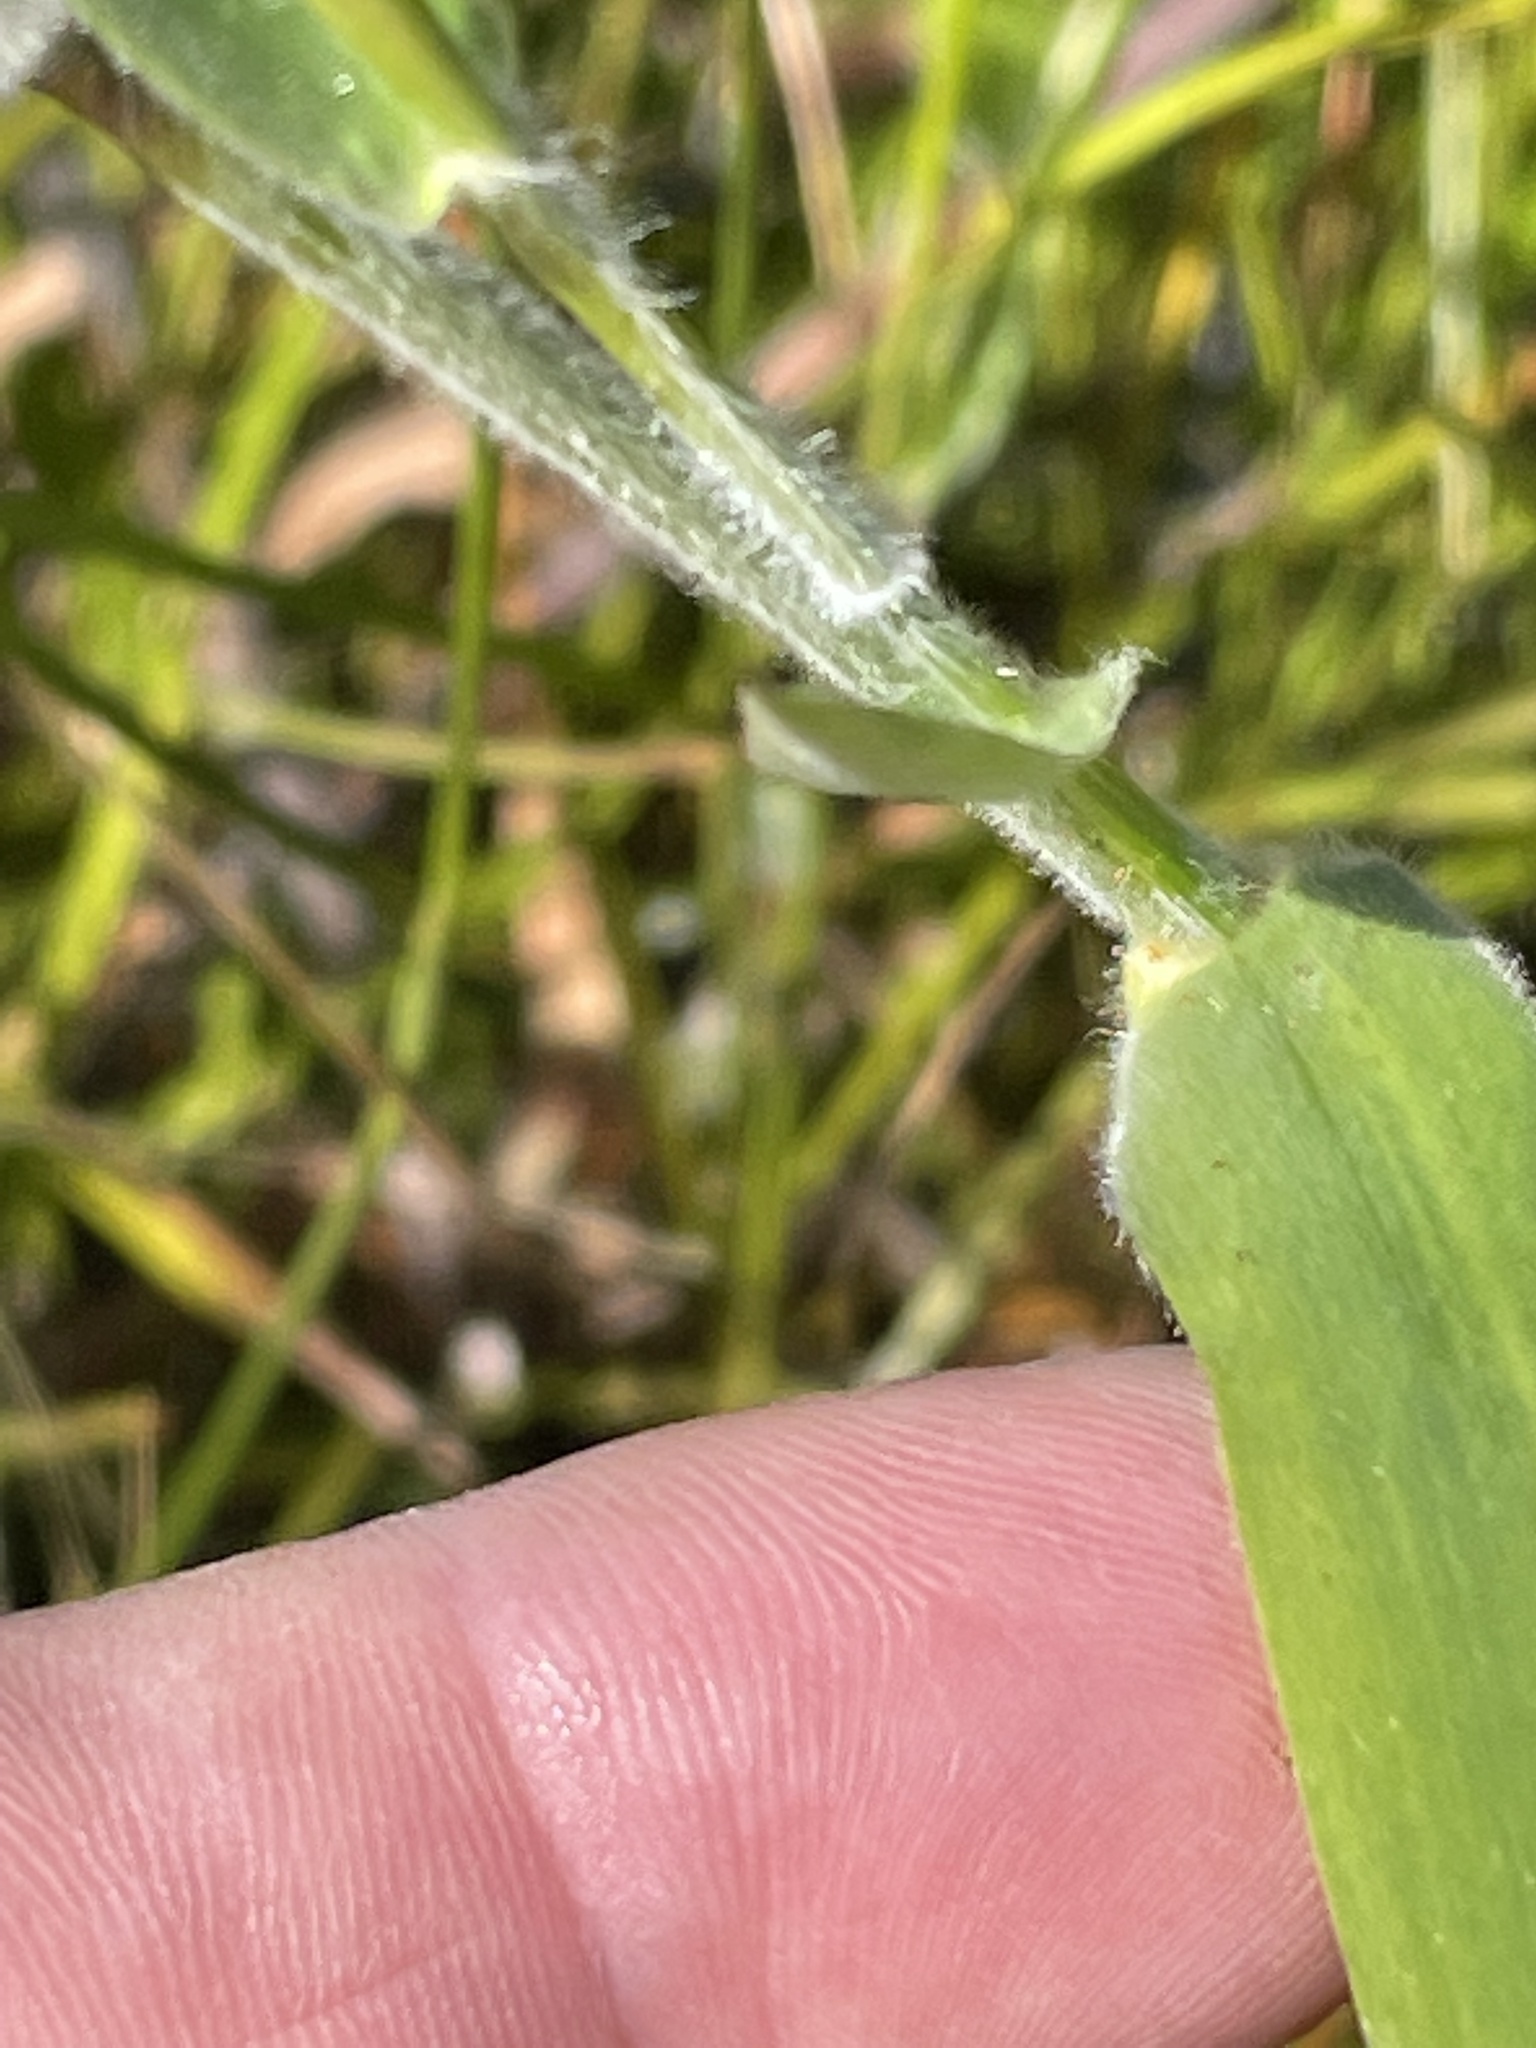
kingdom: Plantae
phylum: Tracheophyta
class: Liliopsida
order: Poales
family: Poaceae
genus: Dichanthelium
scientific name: Dichanthelium scoparium
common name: Velvety panic grass
